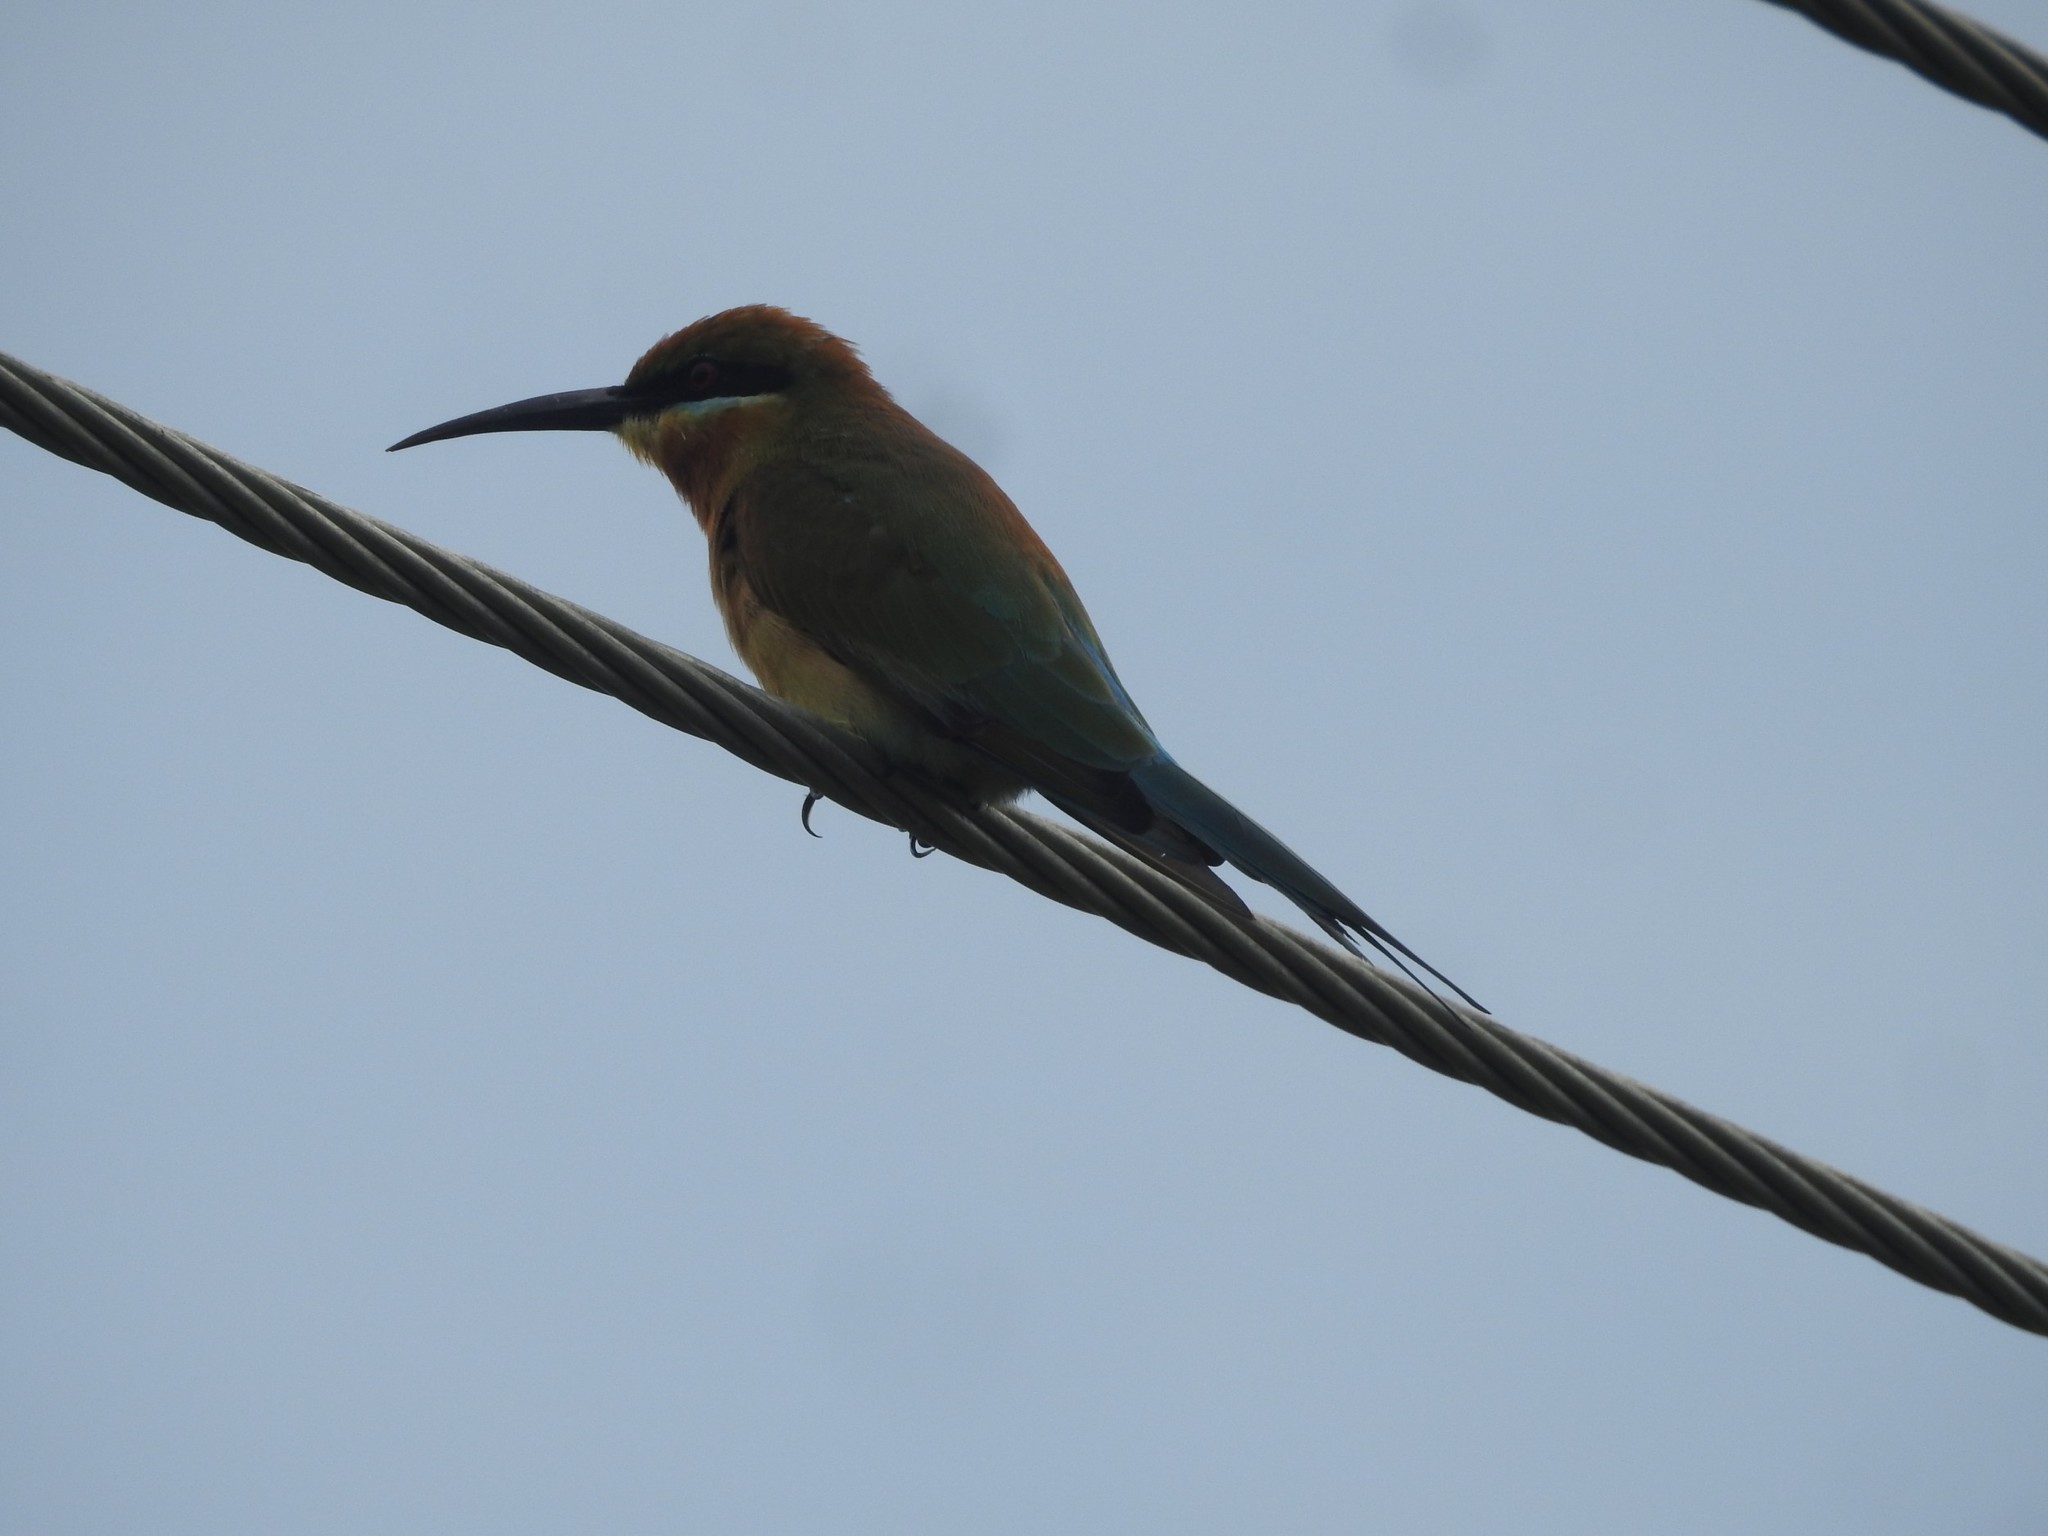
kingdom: Animalia
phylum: Chordata
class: Aves
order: Coraciiformes
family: Meropidae
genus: Merops
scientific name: Merops philippinus
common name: Blue-tailed bee-eater
